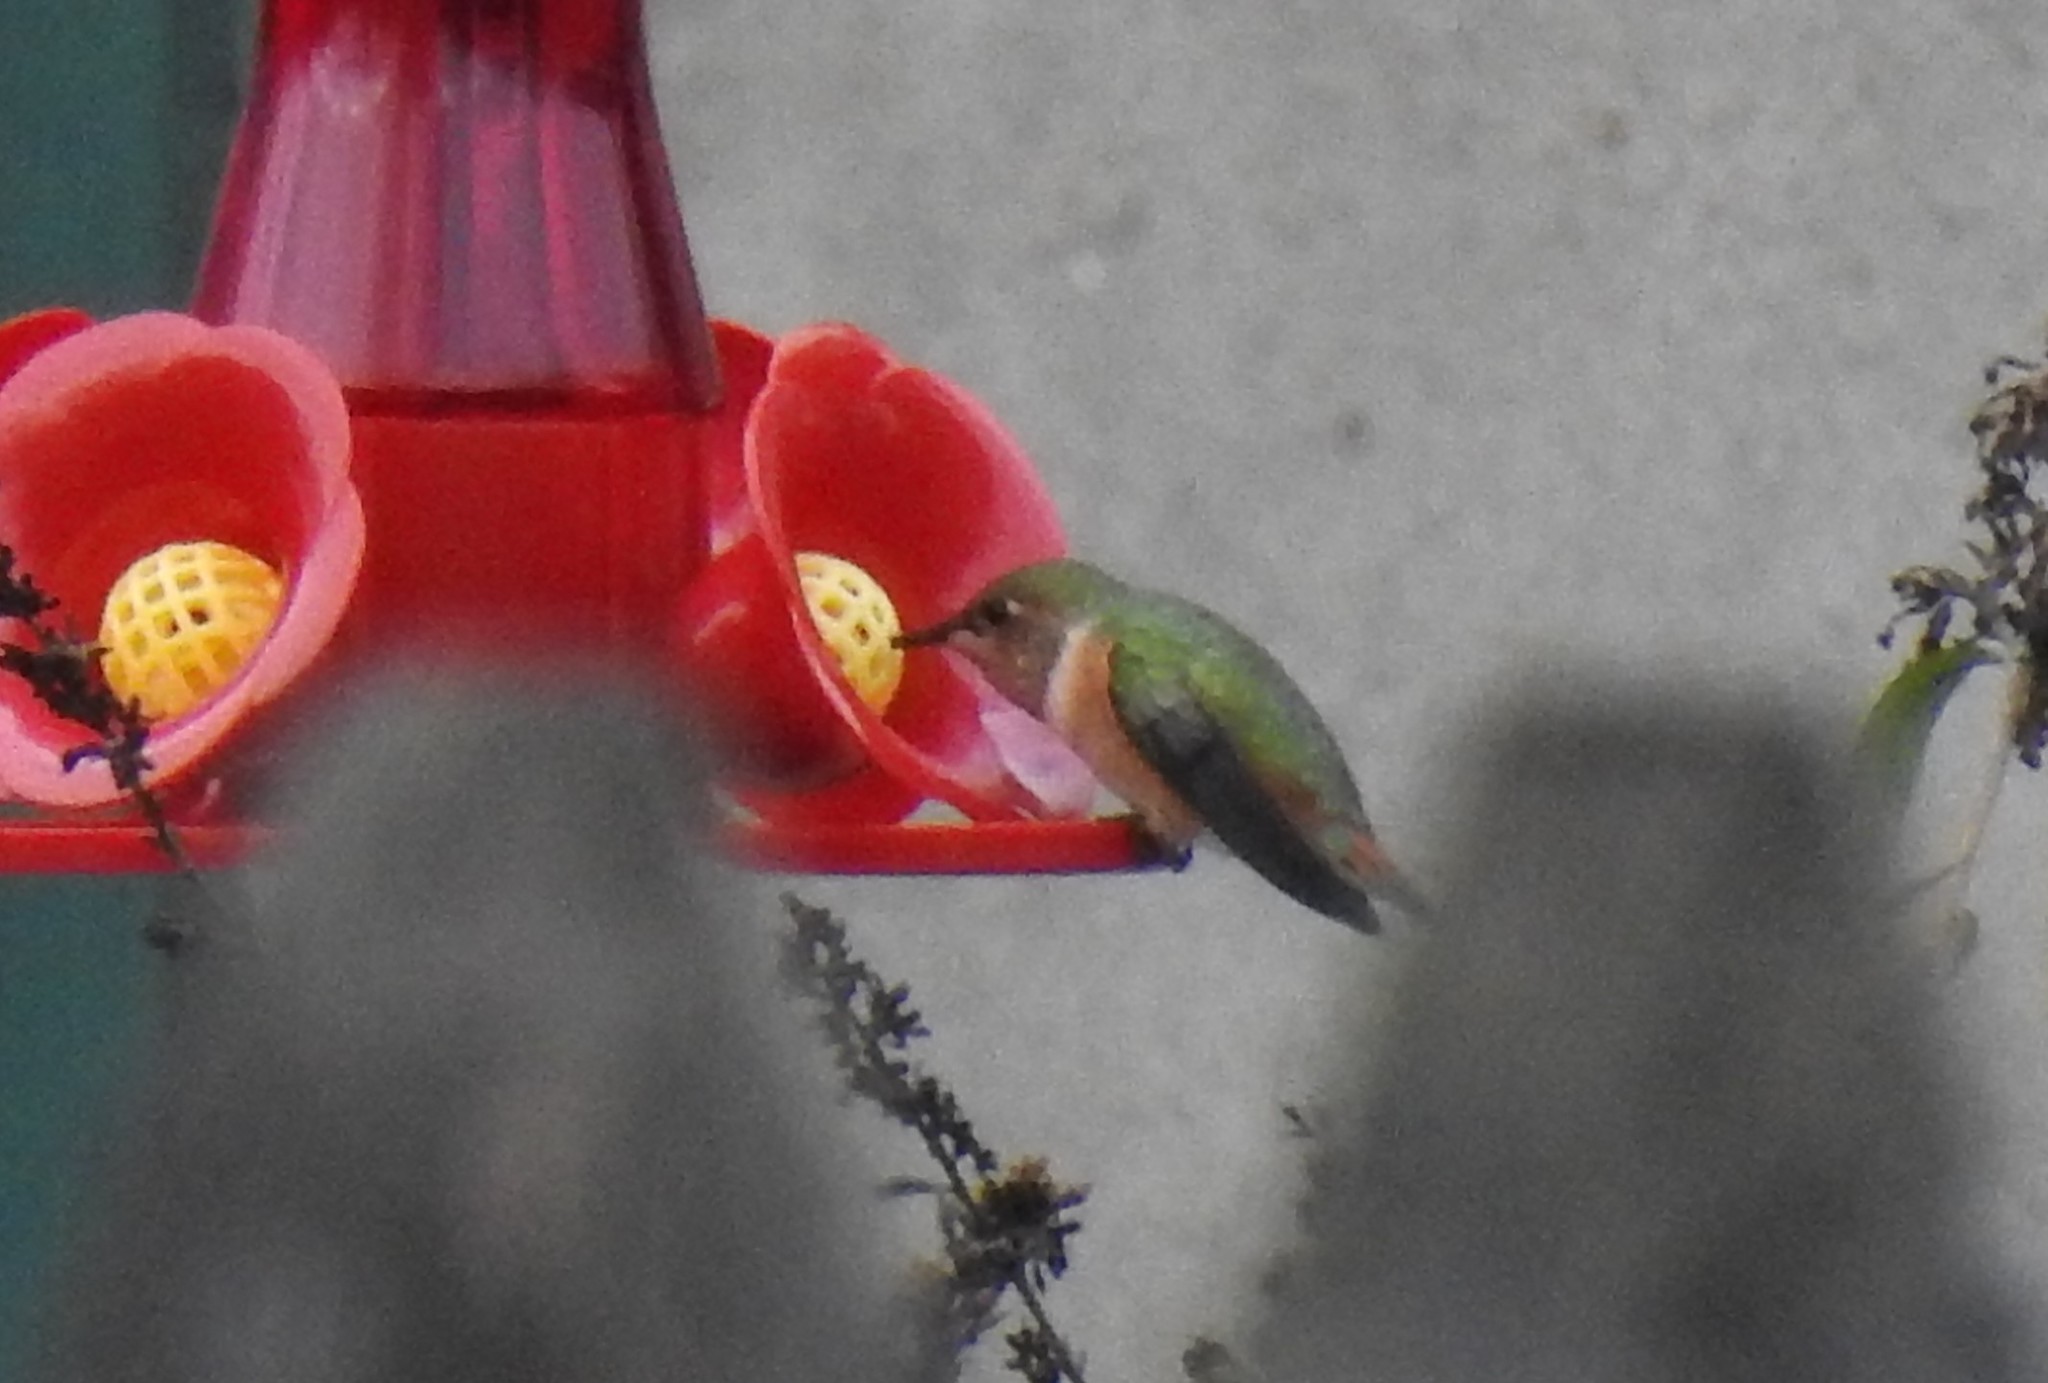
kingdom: Animalia
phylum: Chordata
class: Aves
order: Apodiformes
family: Trochilidae
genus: Selasphorus
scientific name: Selasphorus sasin
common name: Allen's hummingbird
